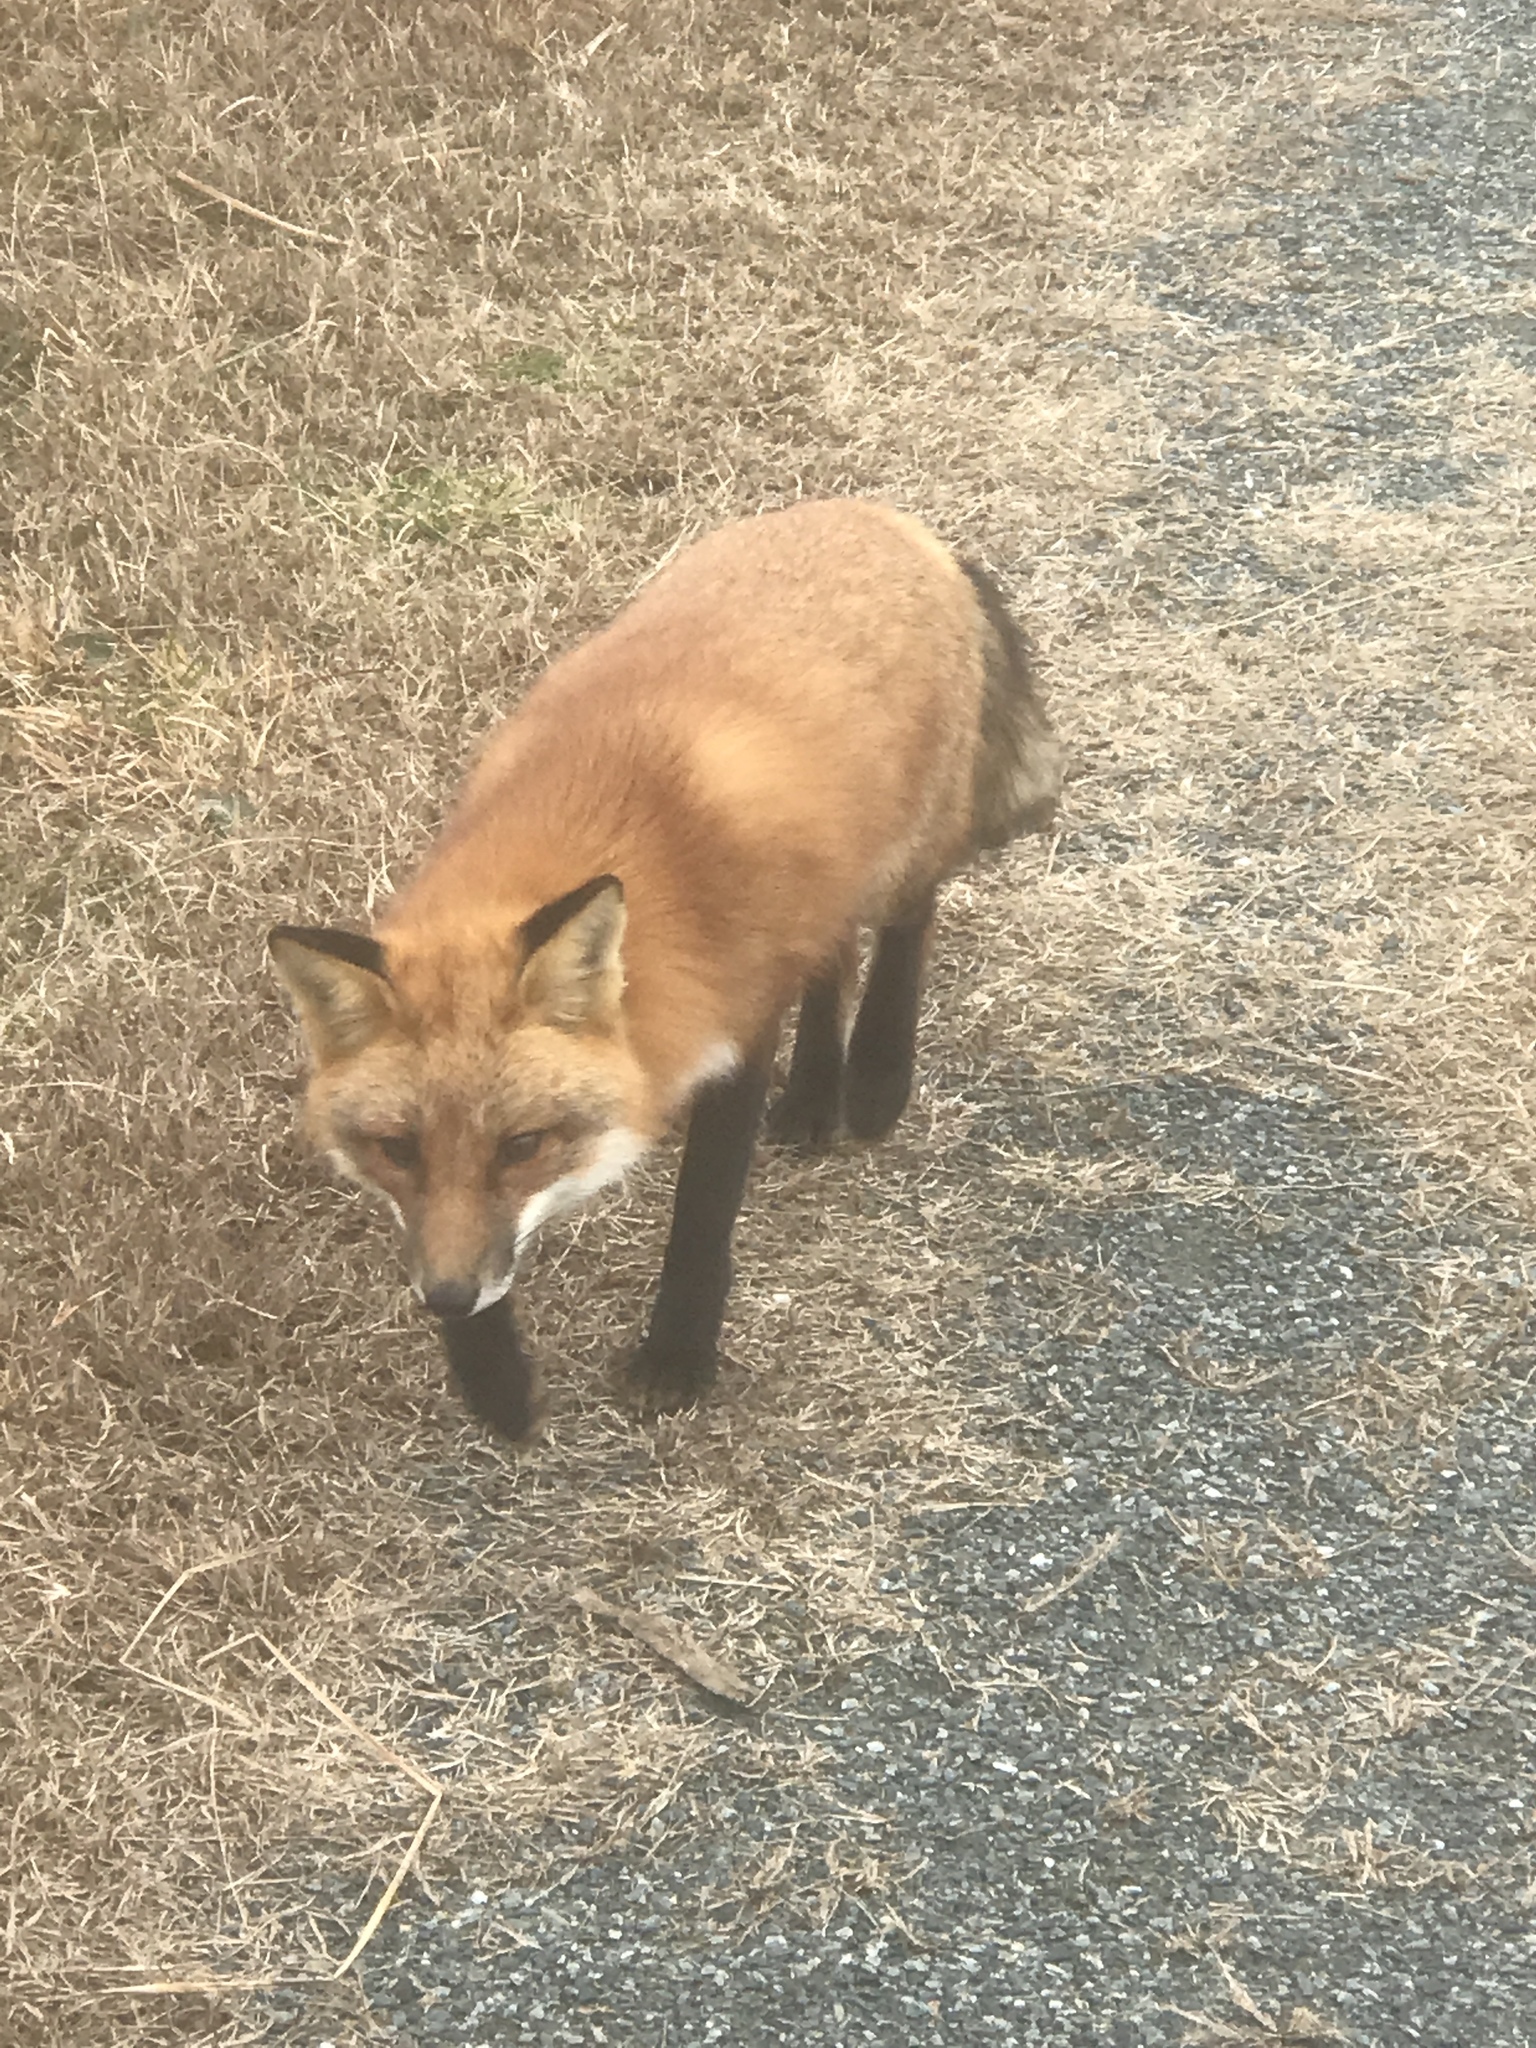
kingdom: Animalia
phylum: Chordata
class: Mammalia
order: Carnivora
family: Canidae
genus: Vulpes
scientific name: Vulpes vulpes
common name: Red fox
